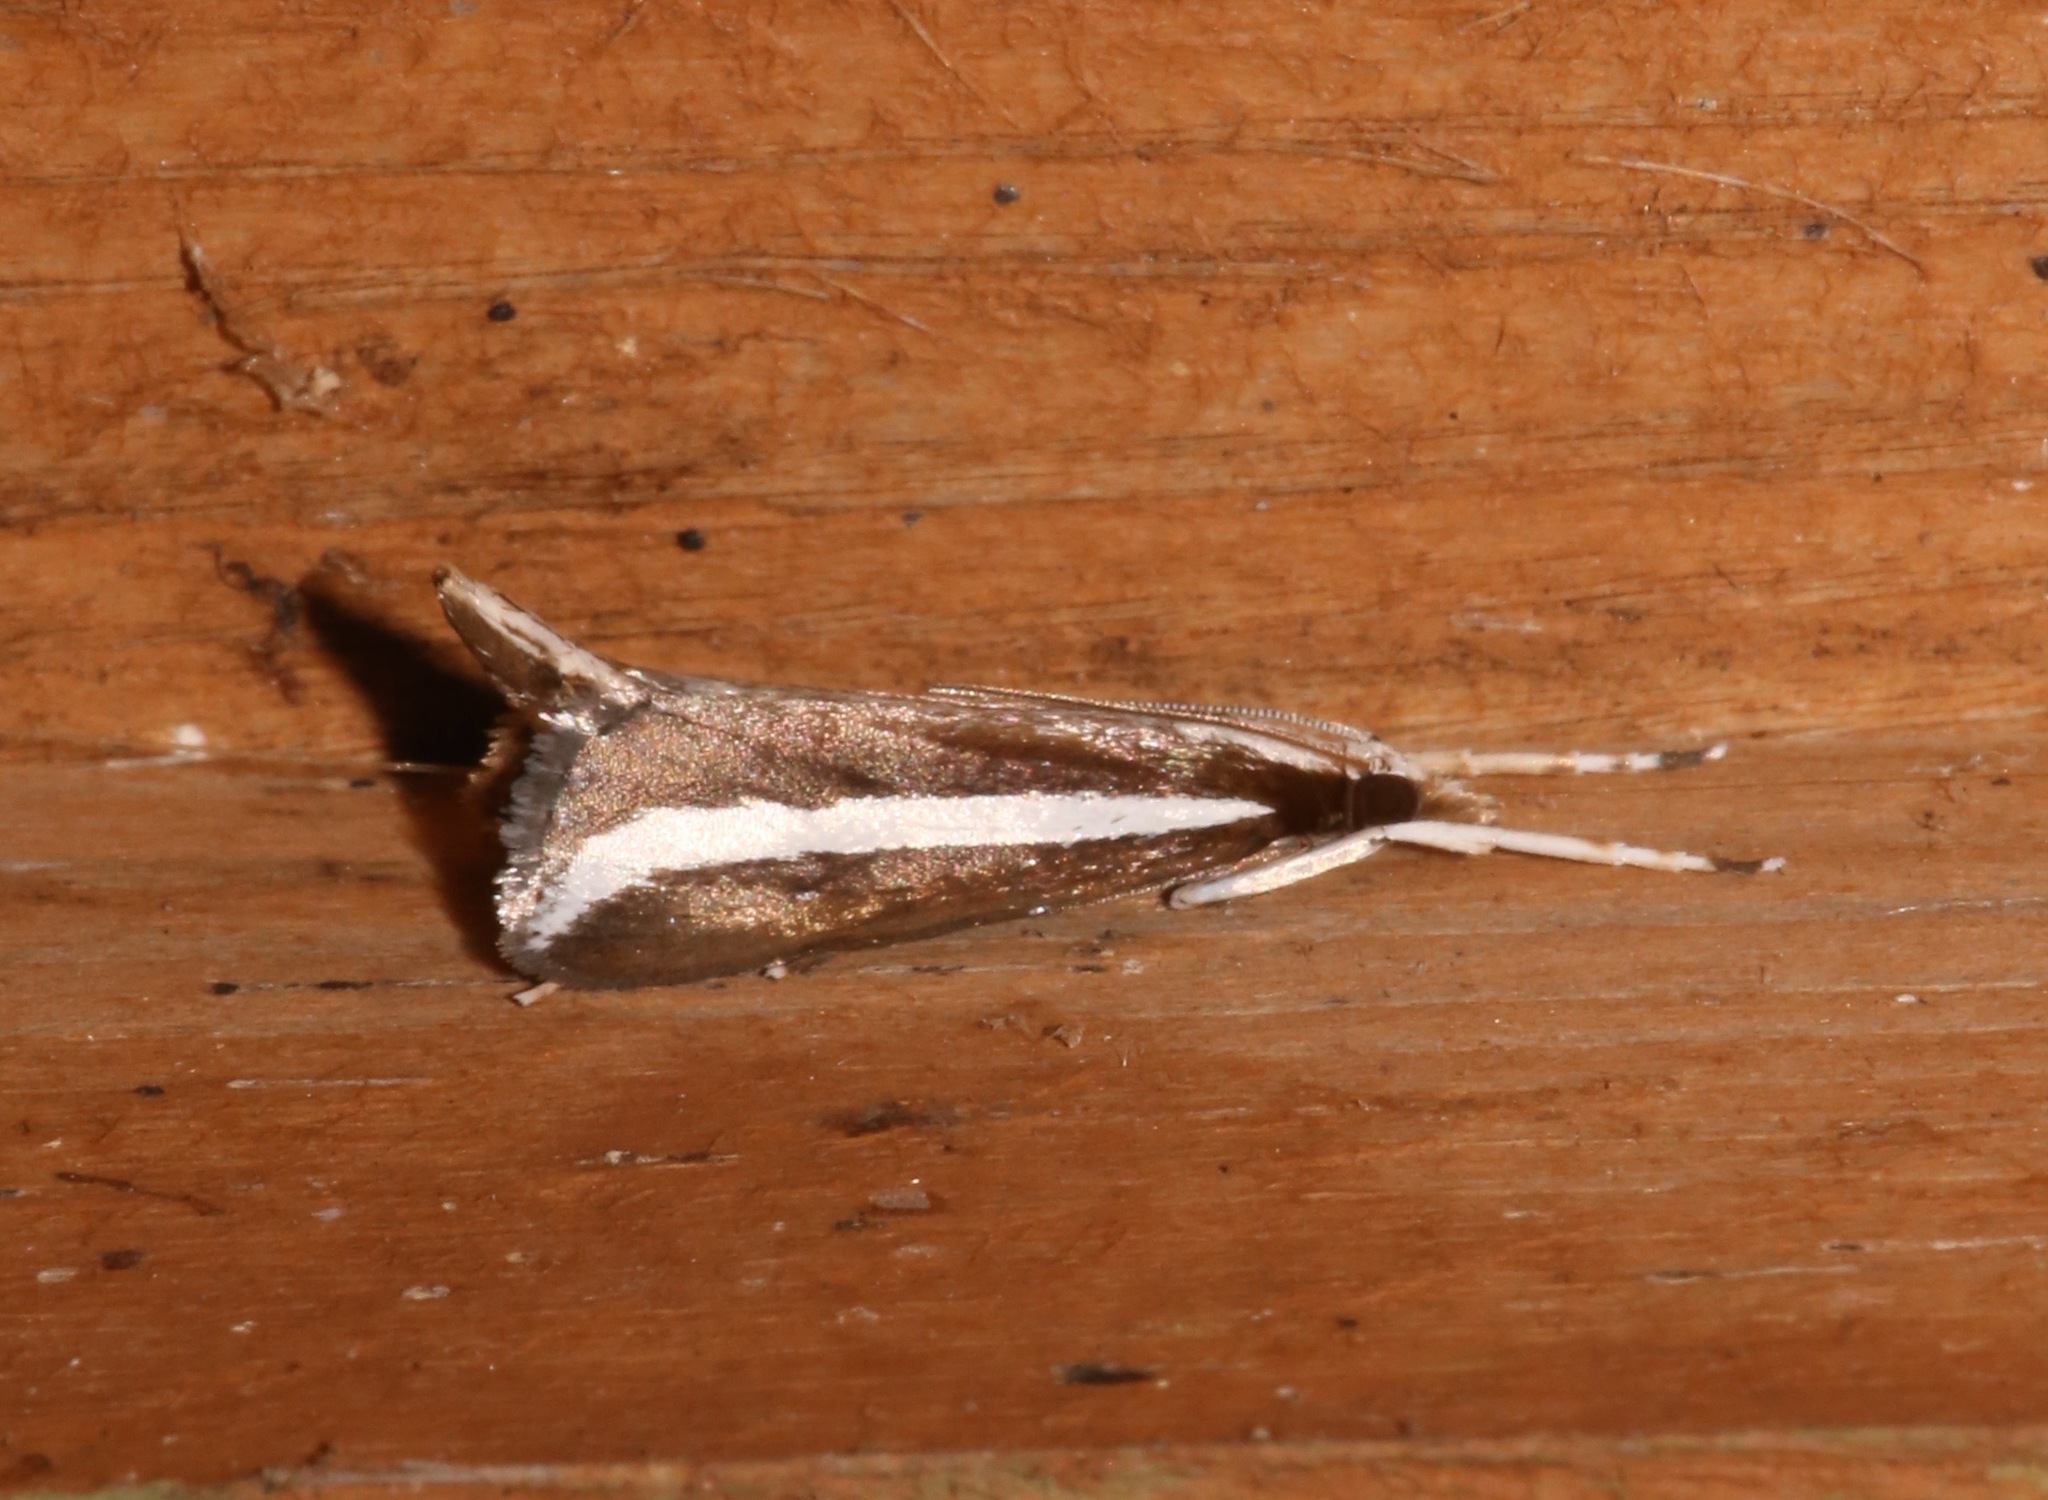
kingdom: Animalia
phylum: Arthropoda
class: Insecta
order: Lepidoptera
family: Crambidae
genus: Carectocultus
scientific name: Carectocultus perstrialis
